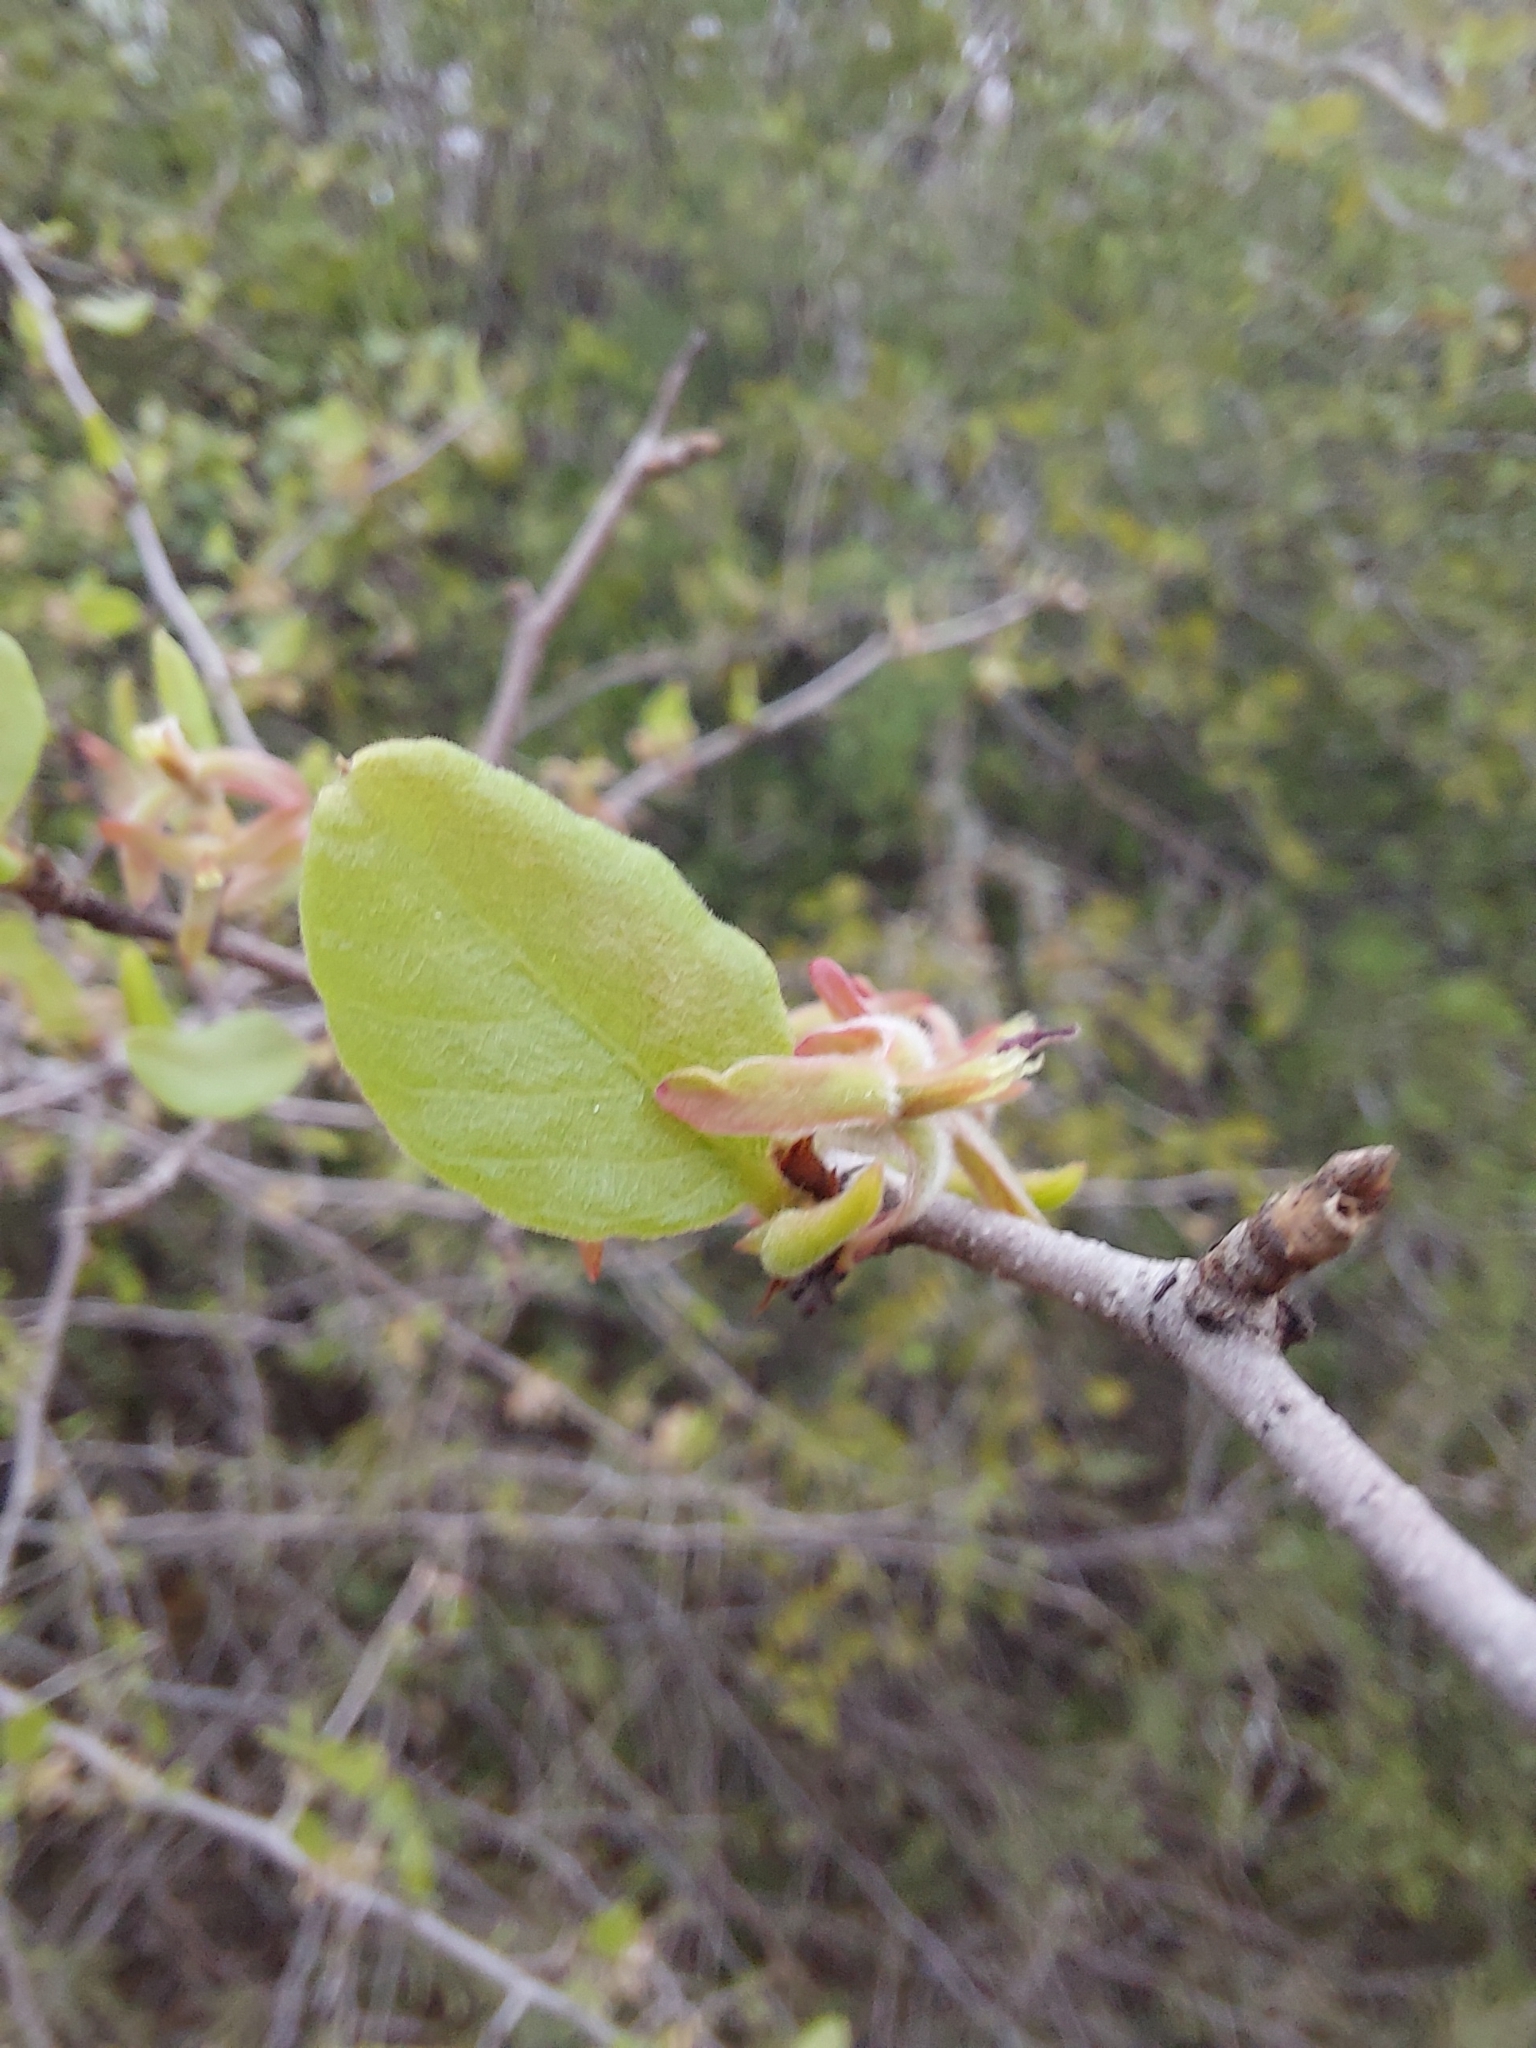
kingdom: Plantae
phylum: Tracheophyta
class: Magnoliopsida
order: Caryophyllales
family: Polygonaceae
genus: Salta
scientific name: Salta triflora
